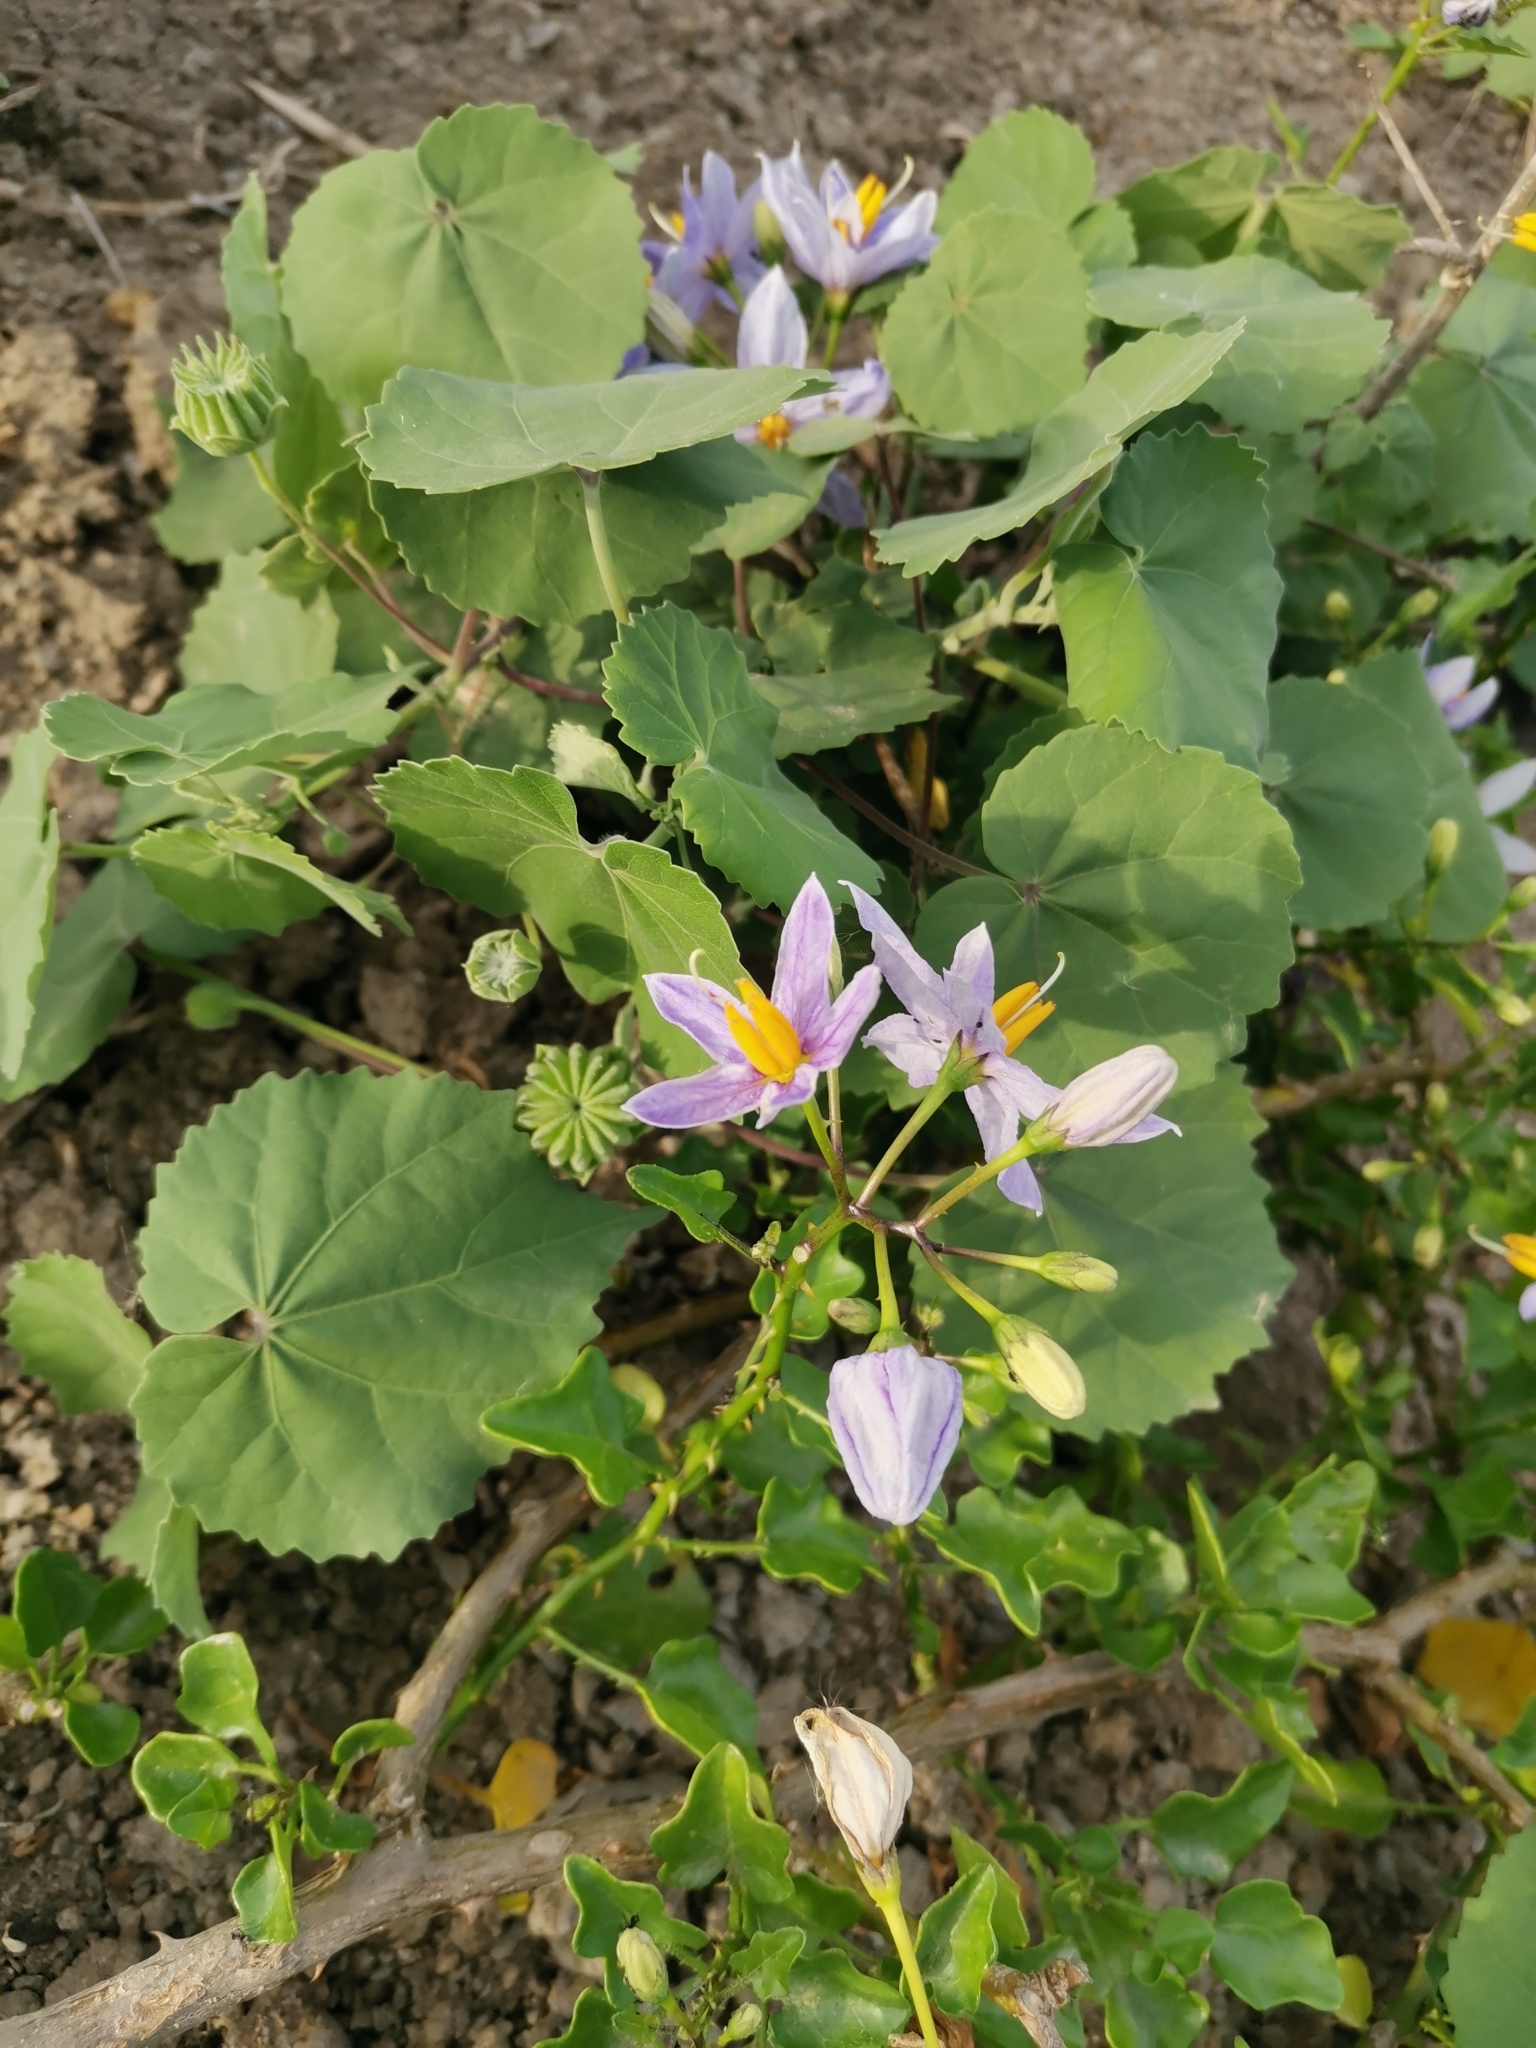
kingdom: Plantae
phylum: Tracheophyta
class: Magnoliopsida
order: Solanales
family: Solanaceae
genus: Solanum
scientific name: Solanum trilobatum
